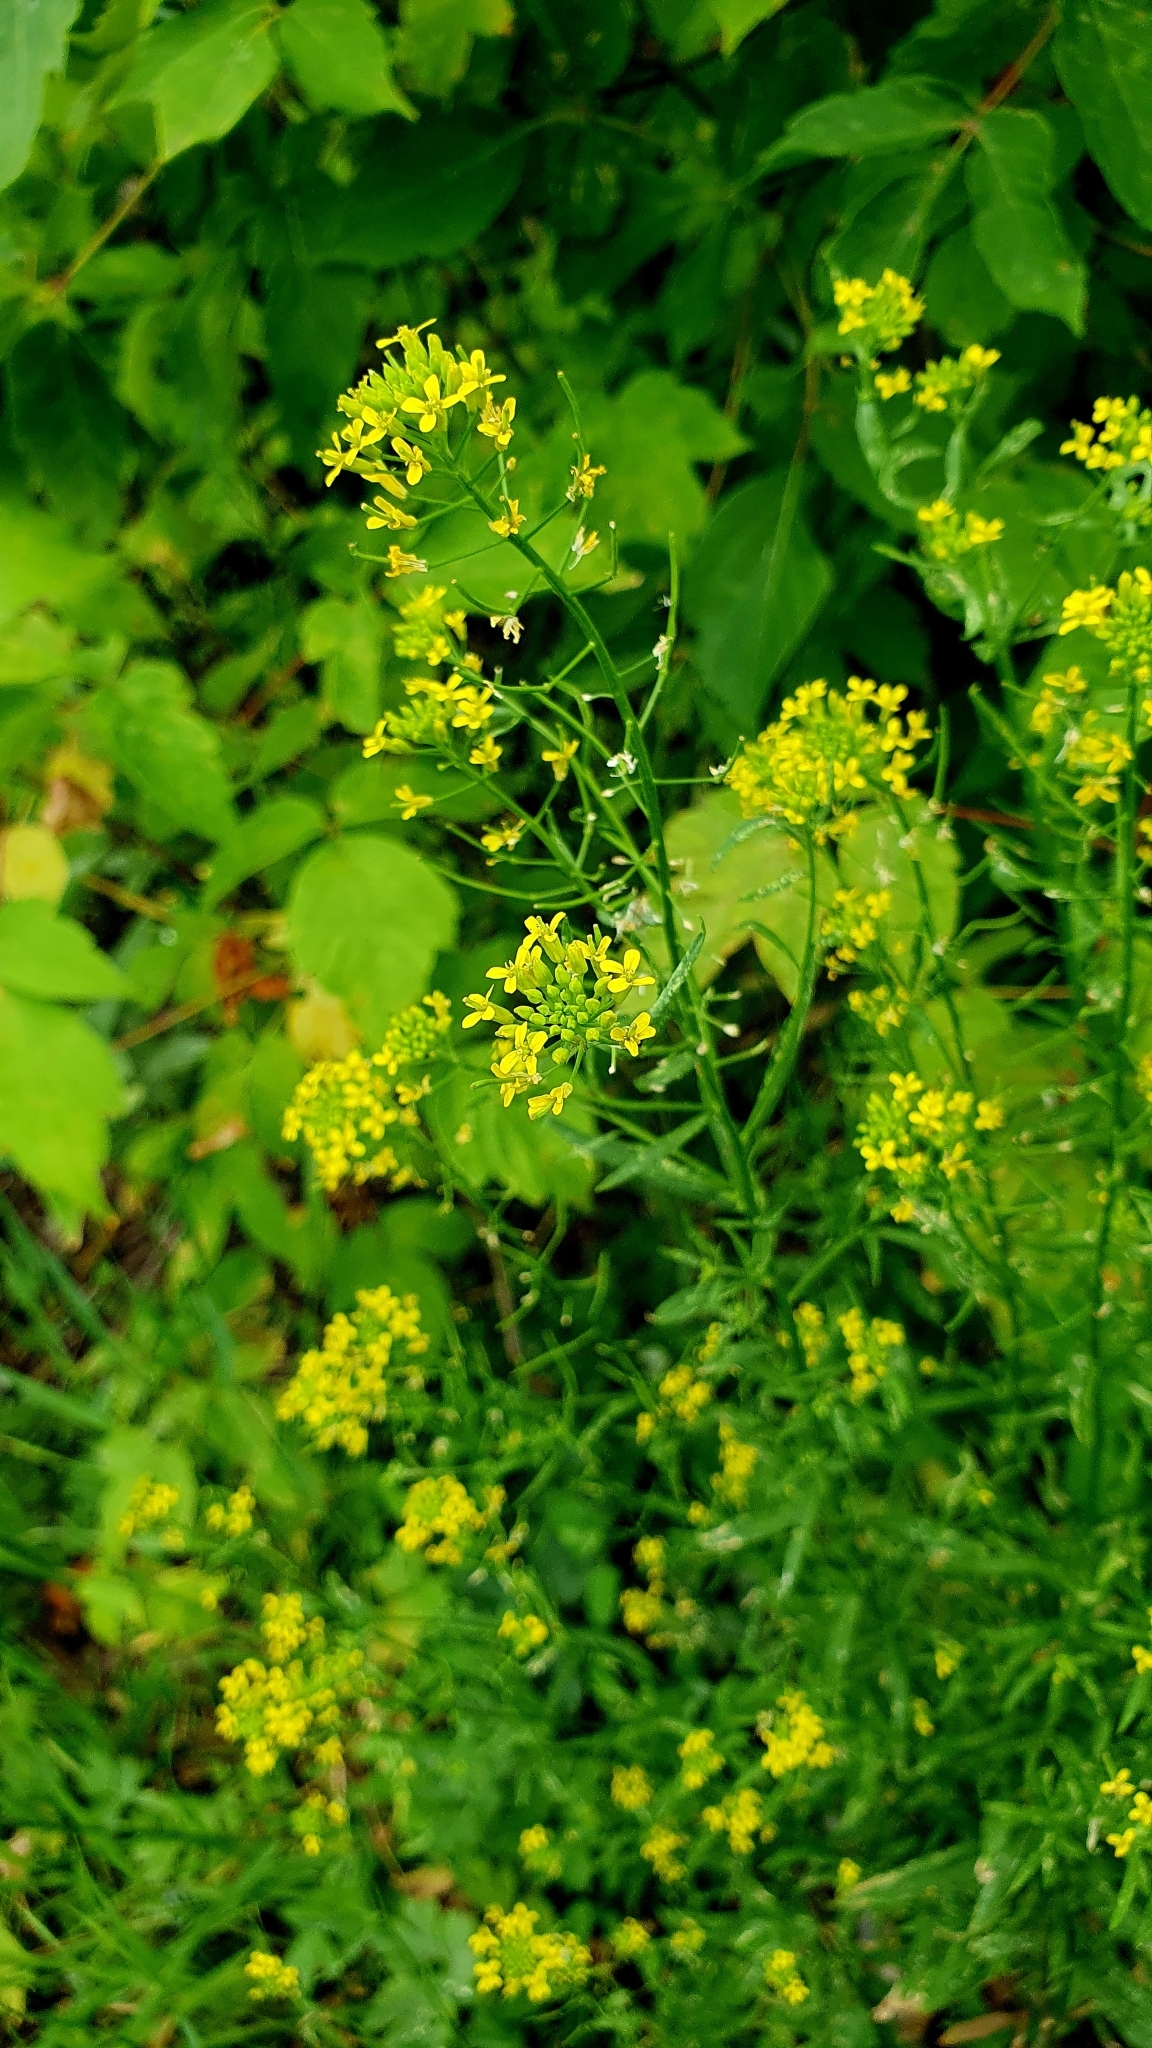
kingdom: Plantae
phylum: Tracheophyta
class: Magnoliopsida
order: Brassicales
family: Brassicaceae
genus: Erysimum
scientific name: Erysimum cheiranthoides
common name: Treacle mustard
